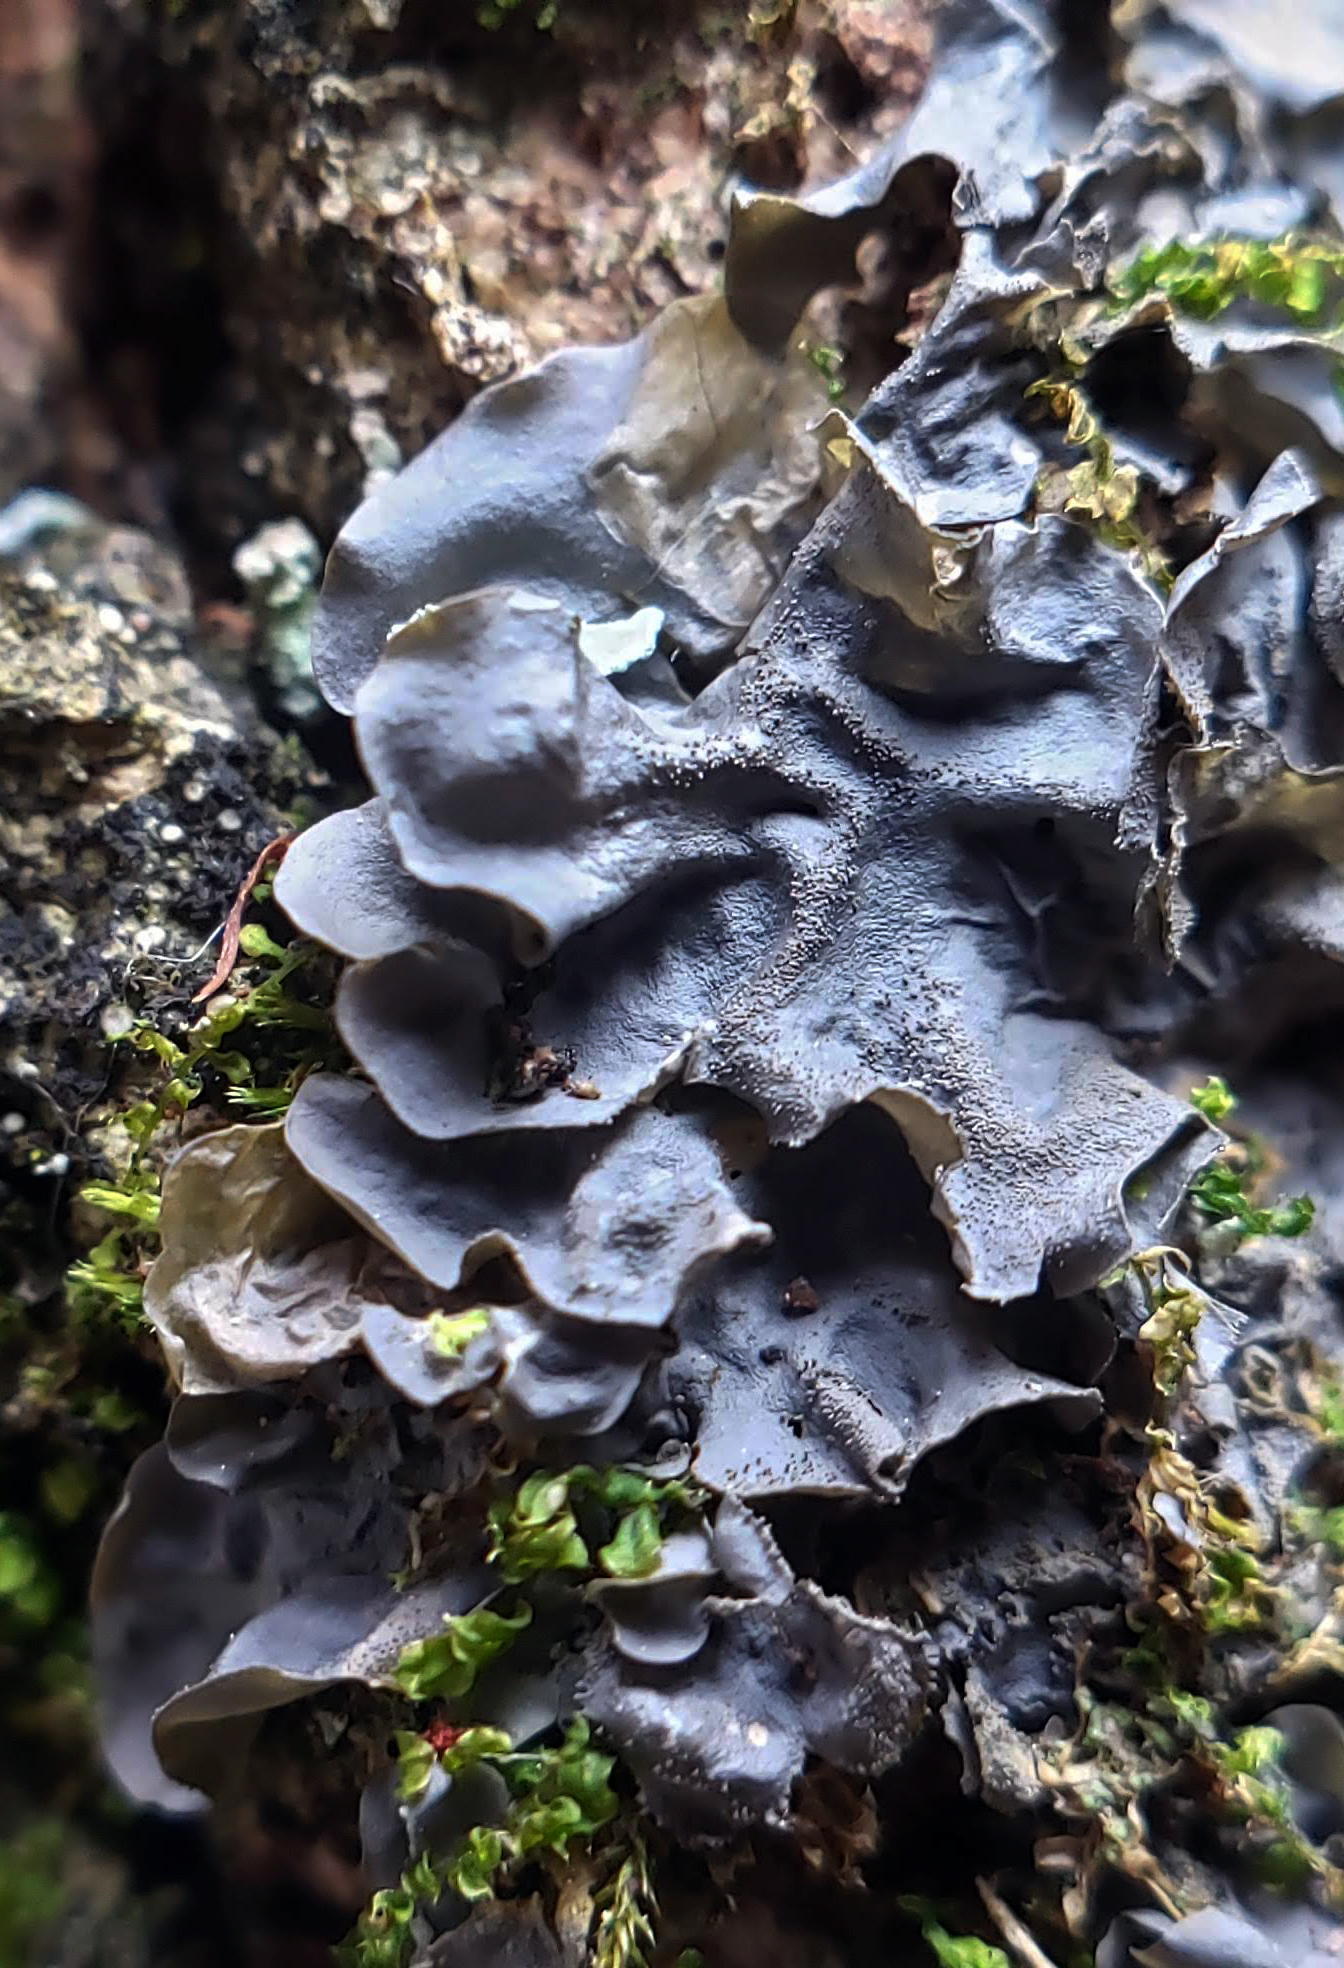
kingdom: Fungi
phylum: Ascomycota
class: Lecanoromycetes
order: Peltigerales
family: Collemataceae
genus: Leptogium
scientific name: Leptogium cyanescens
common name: Blue jellyskin
